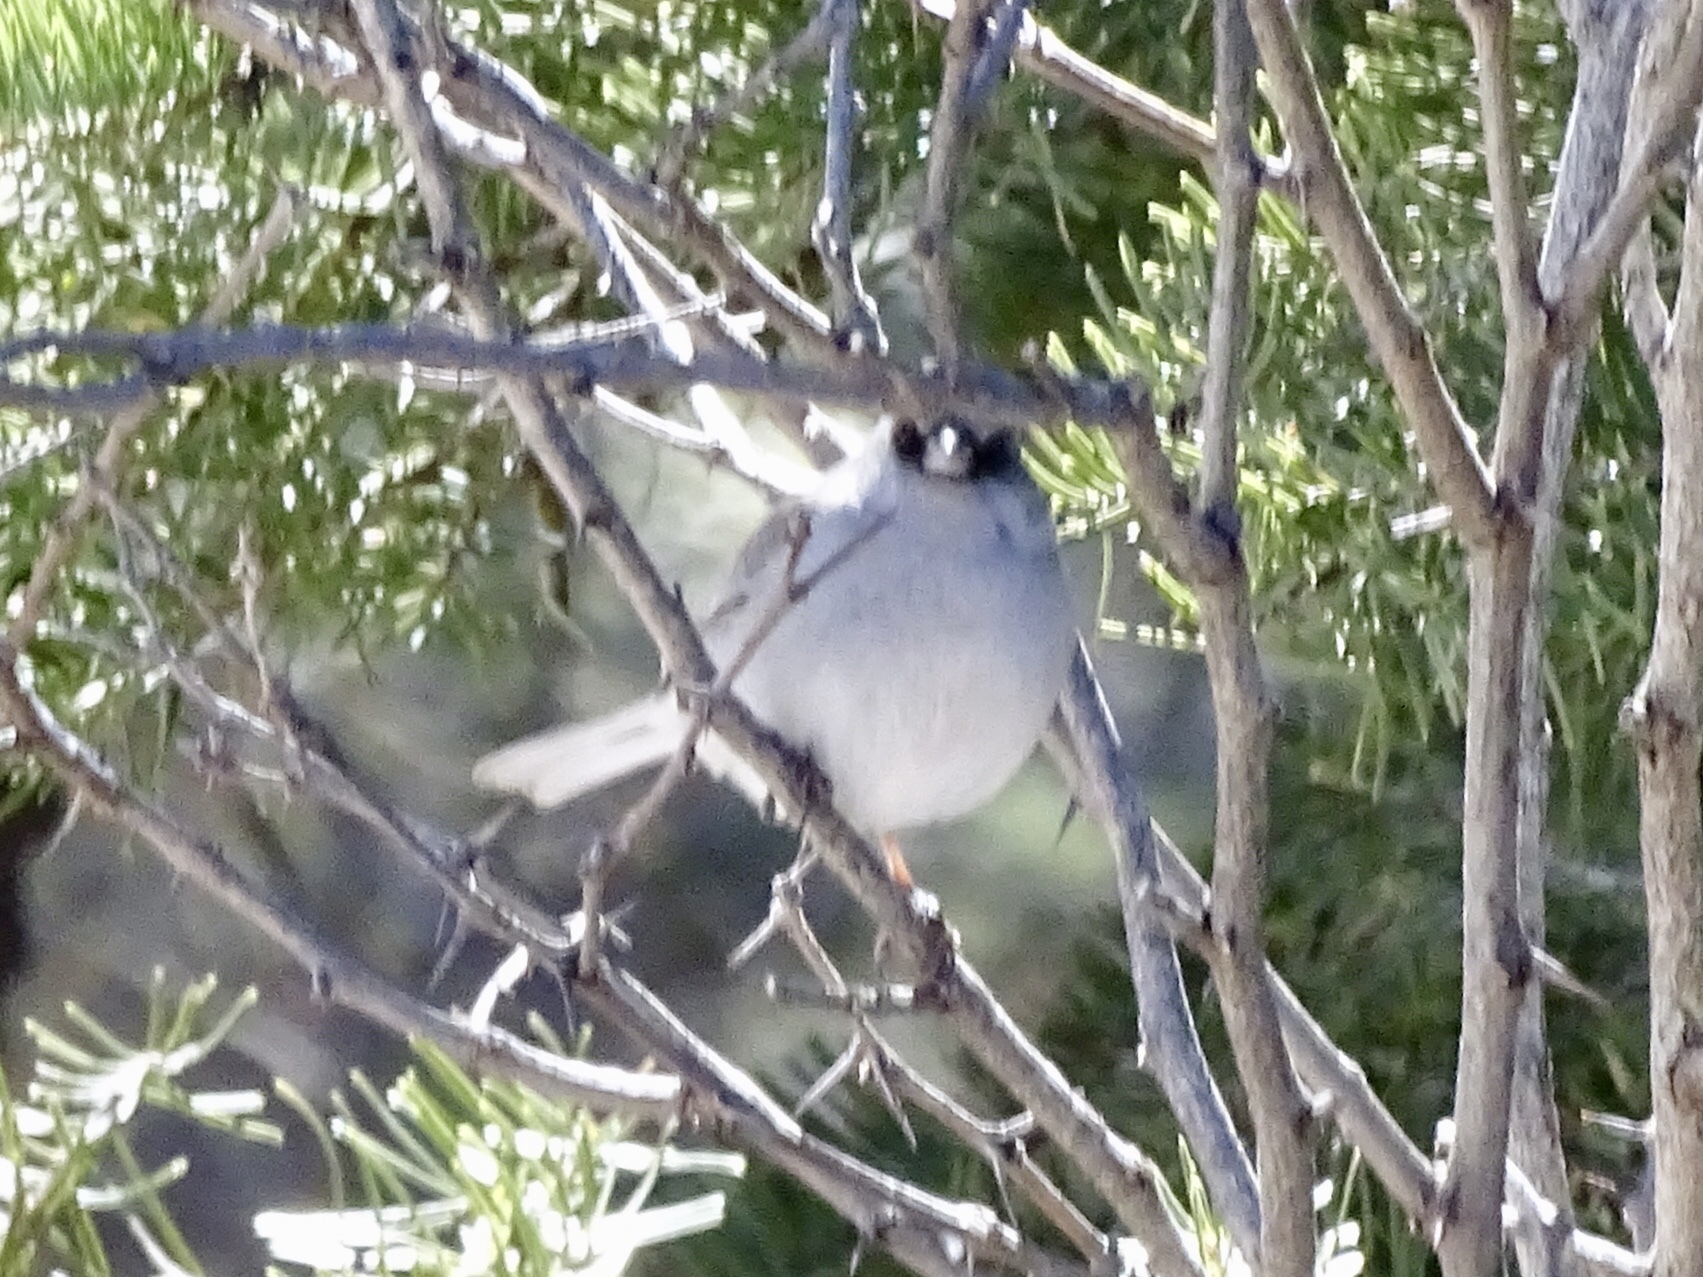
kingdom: Animalia
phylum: Chordata
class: Aves
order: Passeriformes
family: Passerellidae
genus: Junco
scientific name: Junco hyemalis
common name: Dark-eyed junco
